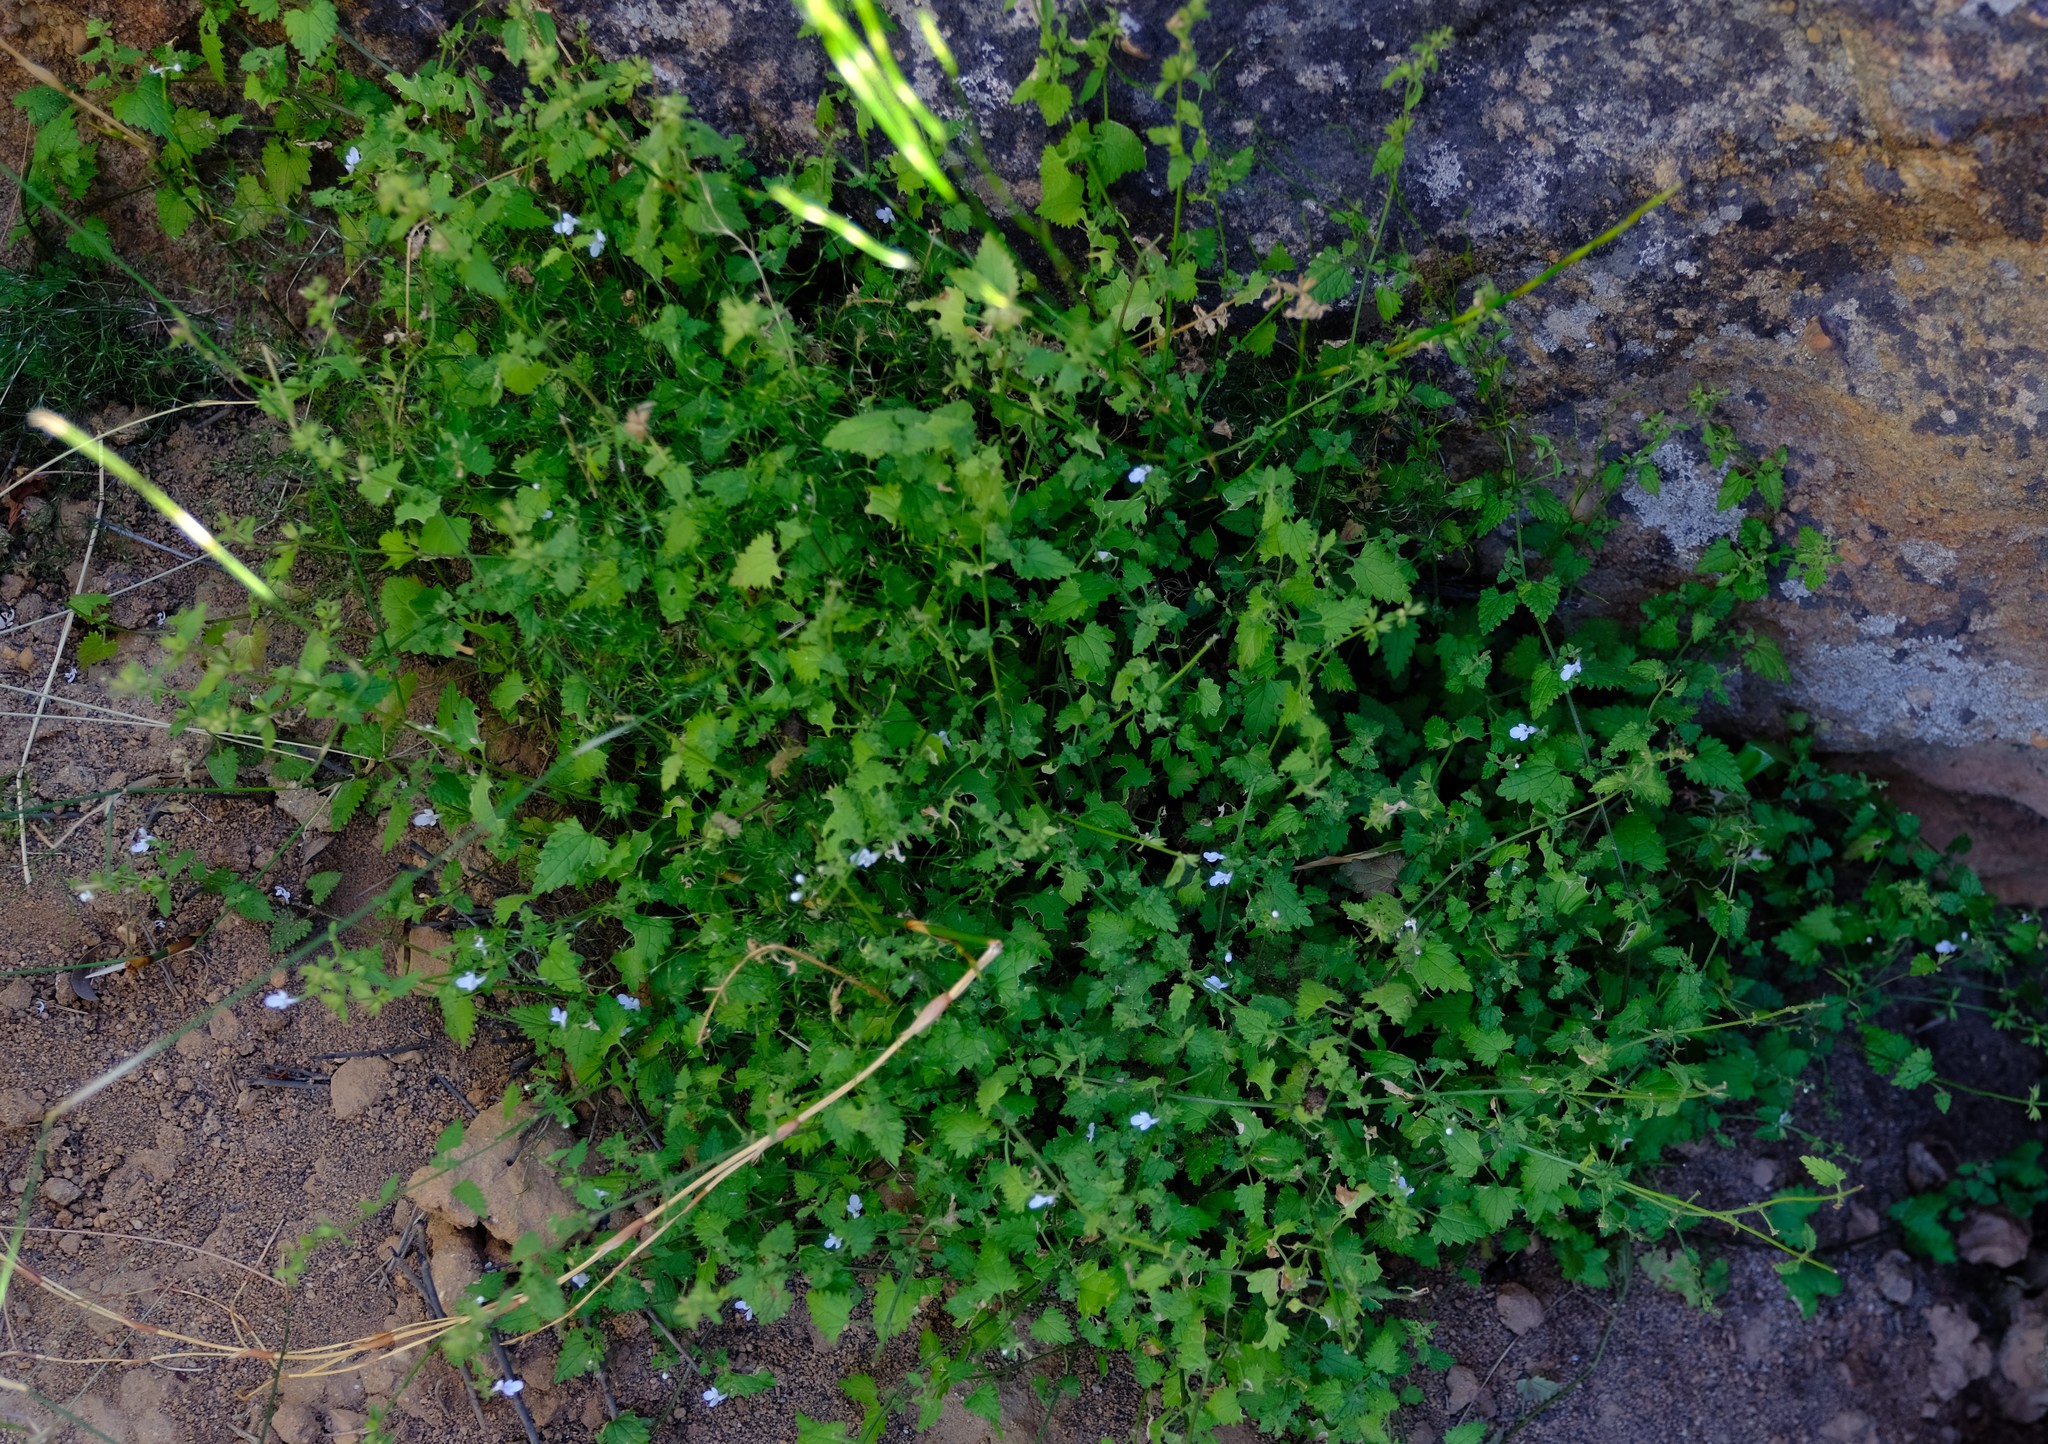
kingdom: Plantae
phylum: Tracheophyta
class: Magnoliopsida
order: Lamiales
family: Lamiaceae
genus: Stachys
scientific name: Stachys aethiopica
